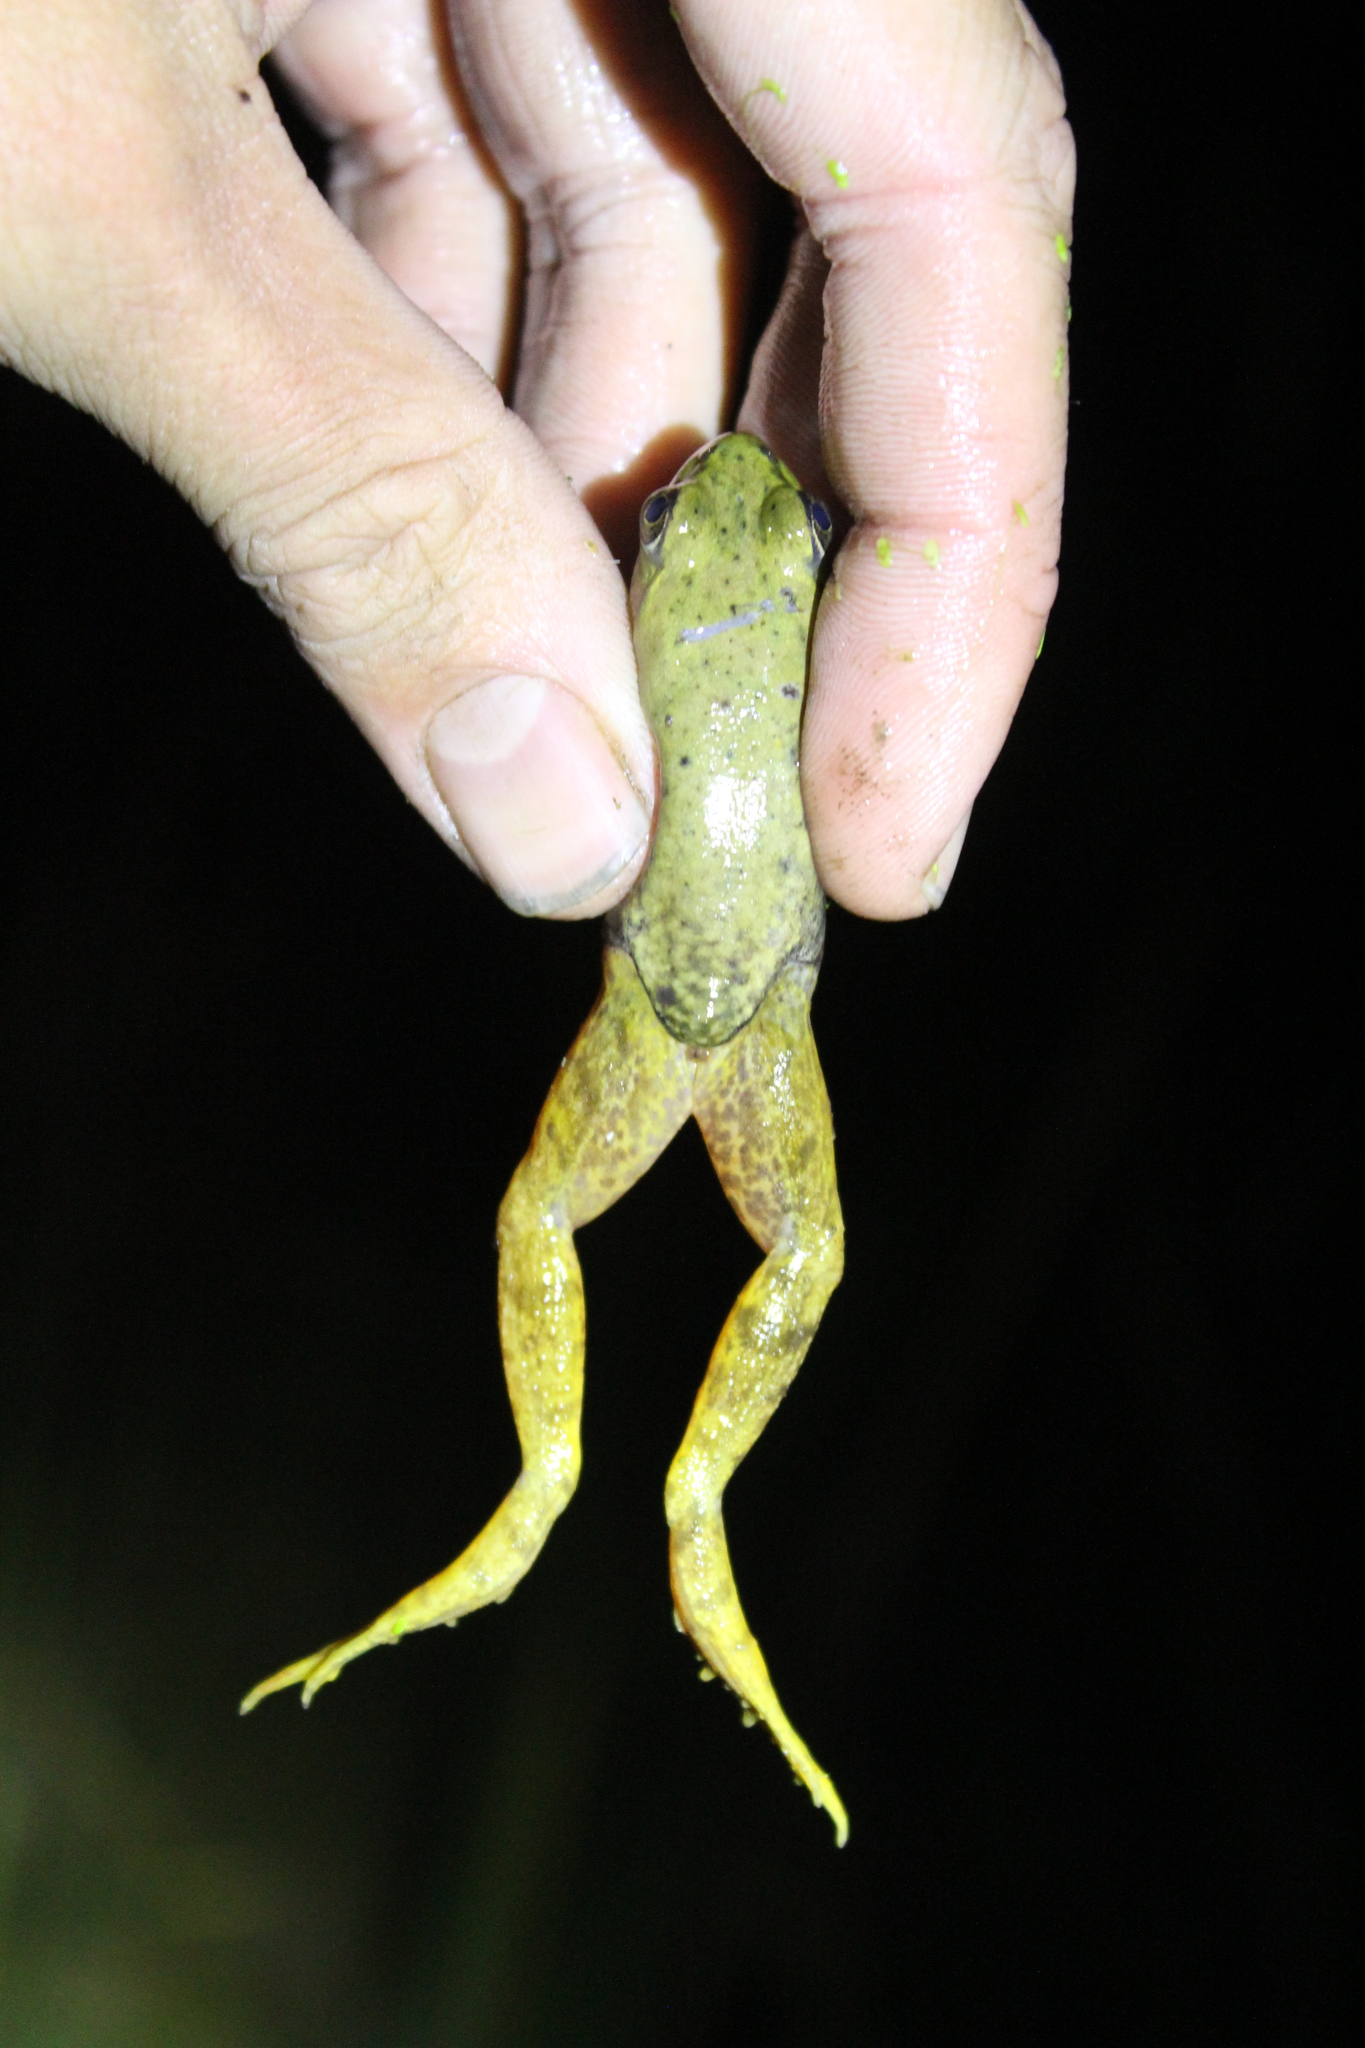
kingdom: Animalia
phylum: Chordata
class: Amphibia
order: Anura
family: Ranidae
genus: Lithobates
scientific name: Lithobates catesbeianus
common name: American bullfrog
